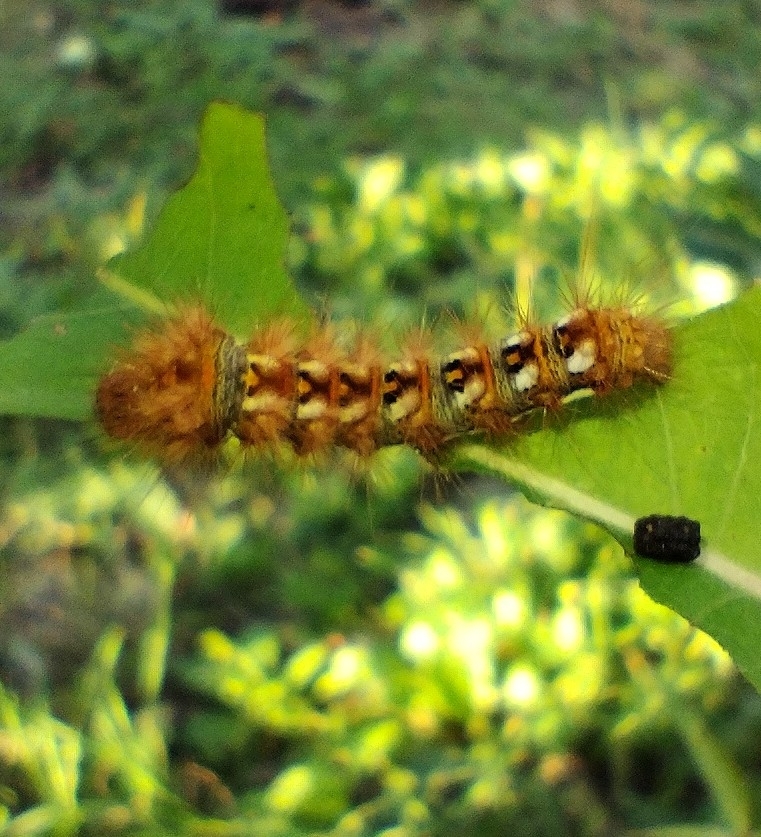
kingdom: Animalia
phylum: Arthropoda
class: Insecta
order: Lepidoptera
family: Noctuidae
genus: Acronicta
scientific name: Acronicta rumicis
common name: Knot grass
